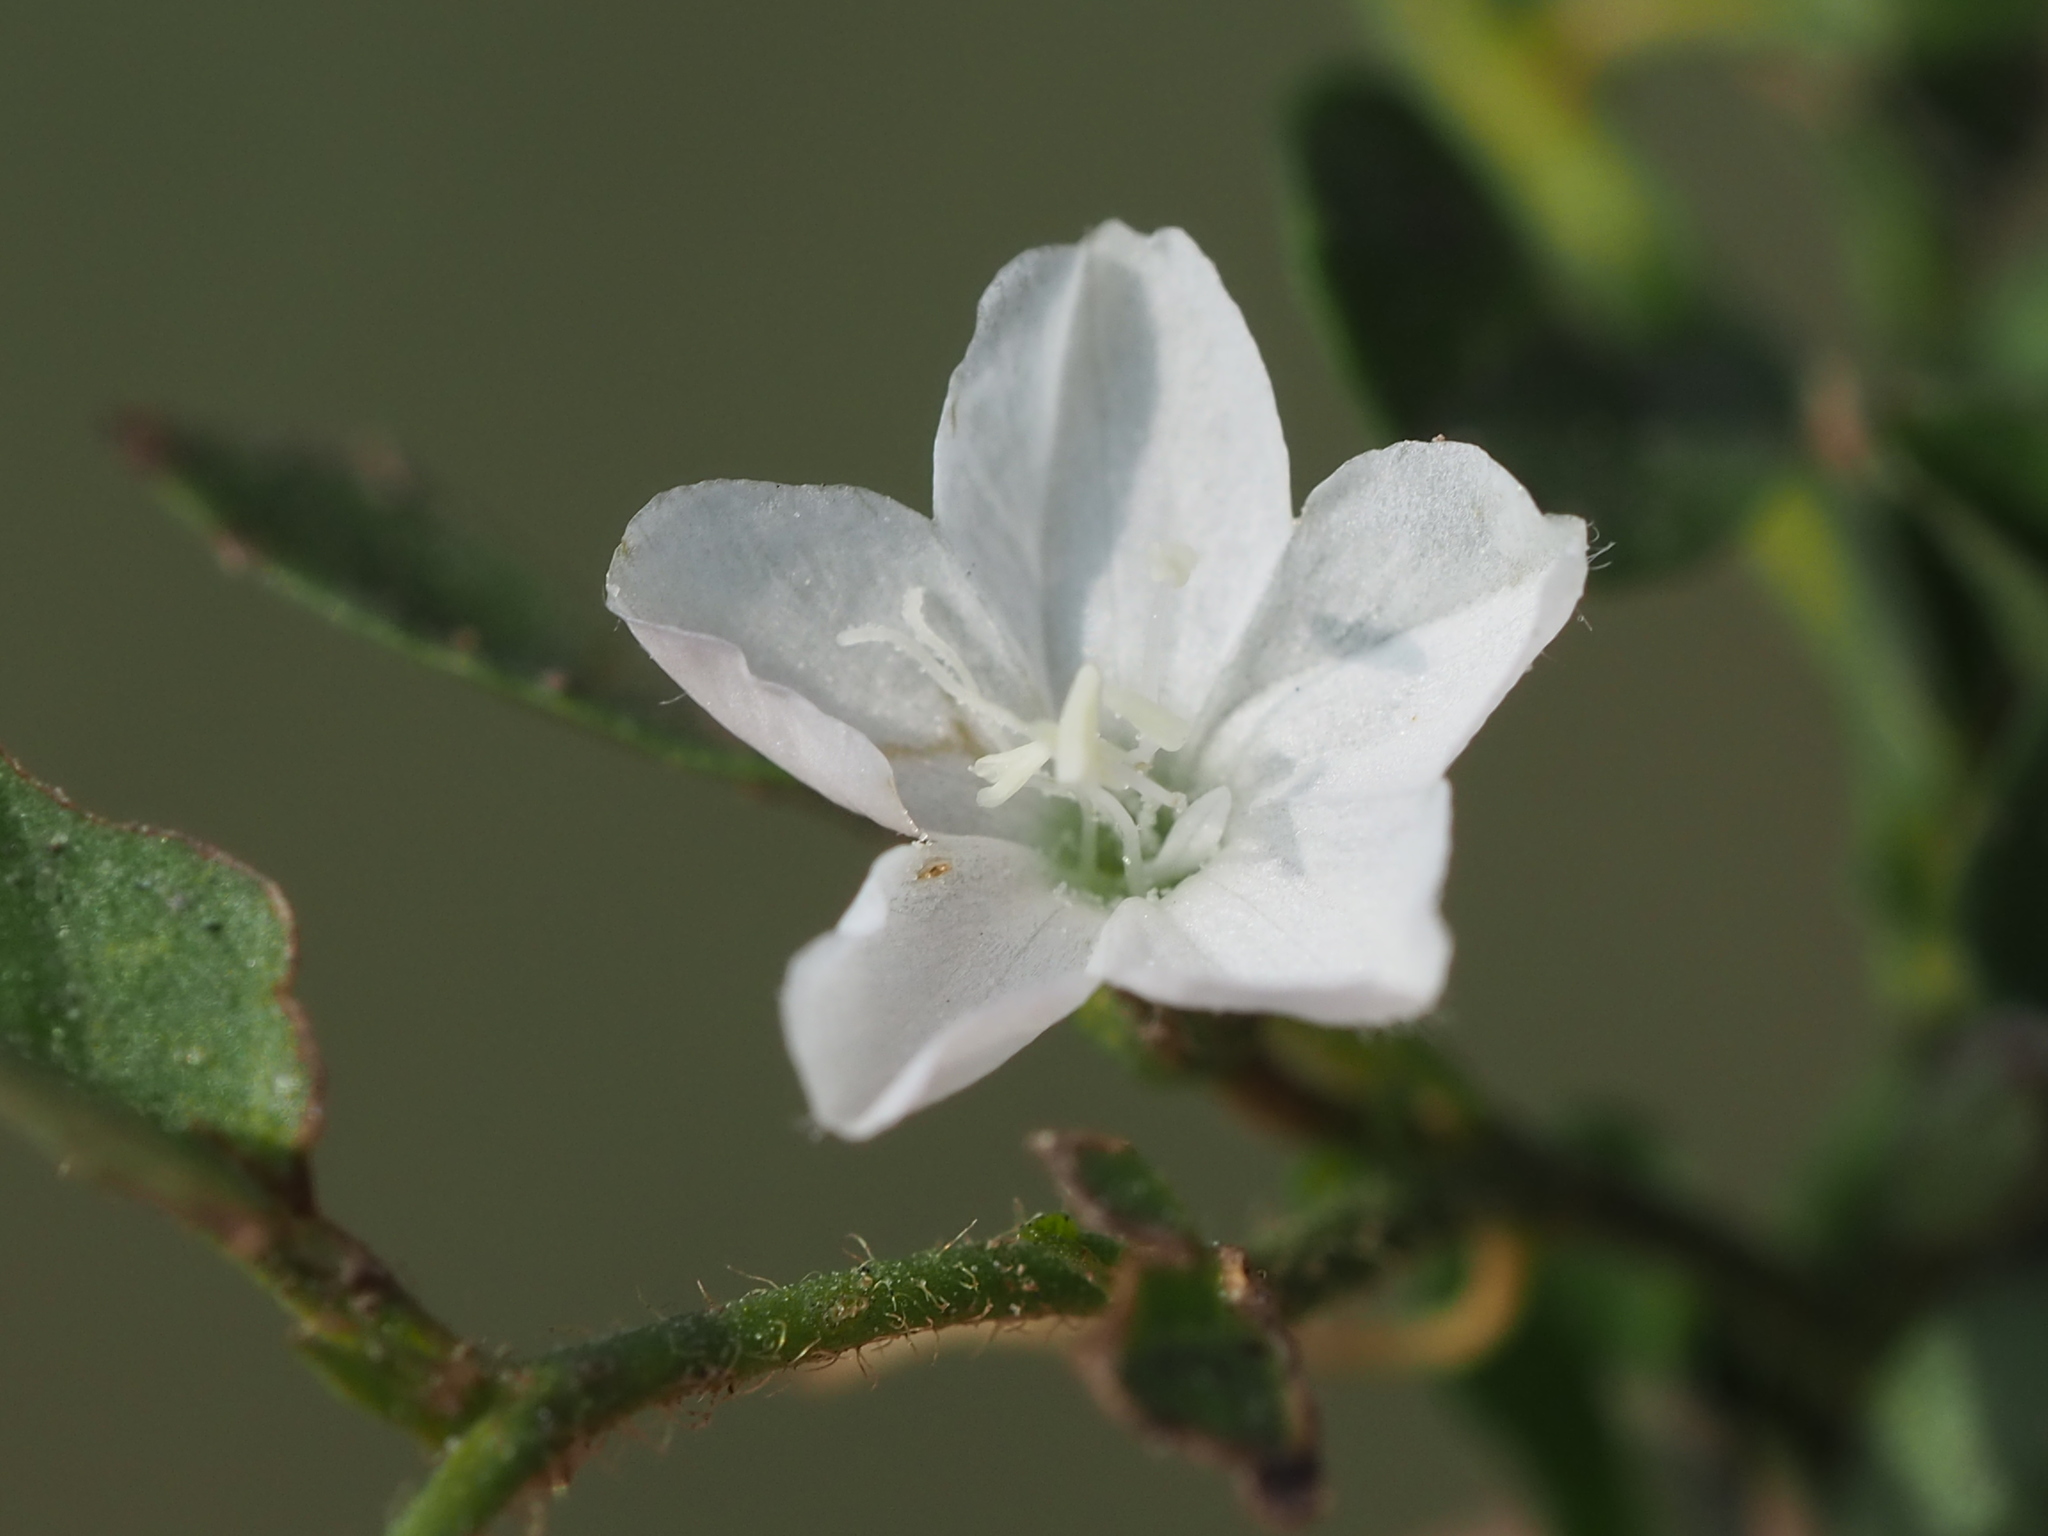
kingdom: Plantae
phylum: Tracheophyta
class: Magnoliopsida
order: Solanales
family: Convolvulaceae
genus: Evolvulus
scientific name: Evolvulus nummularius
